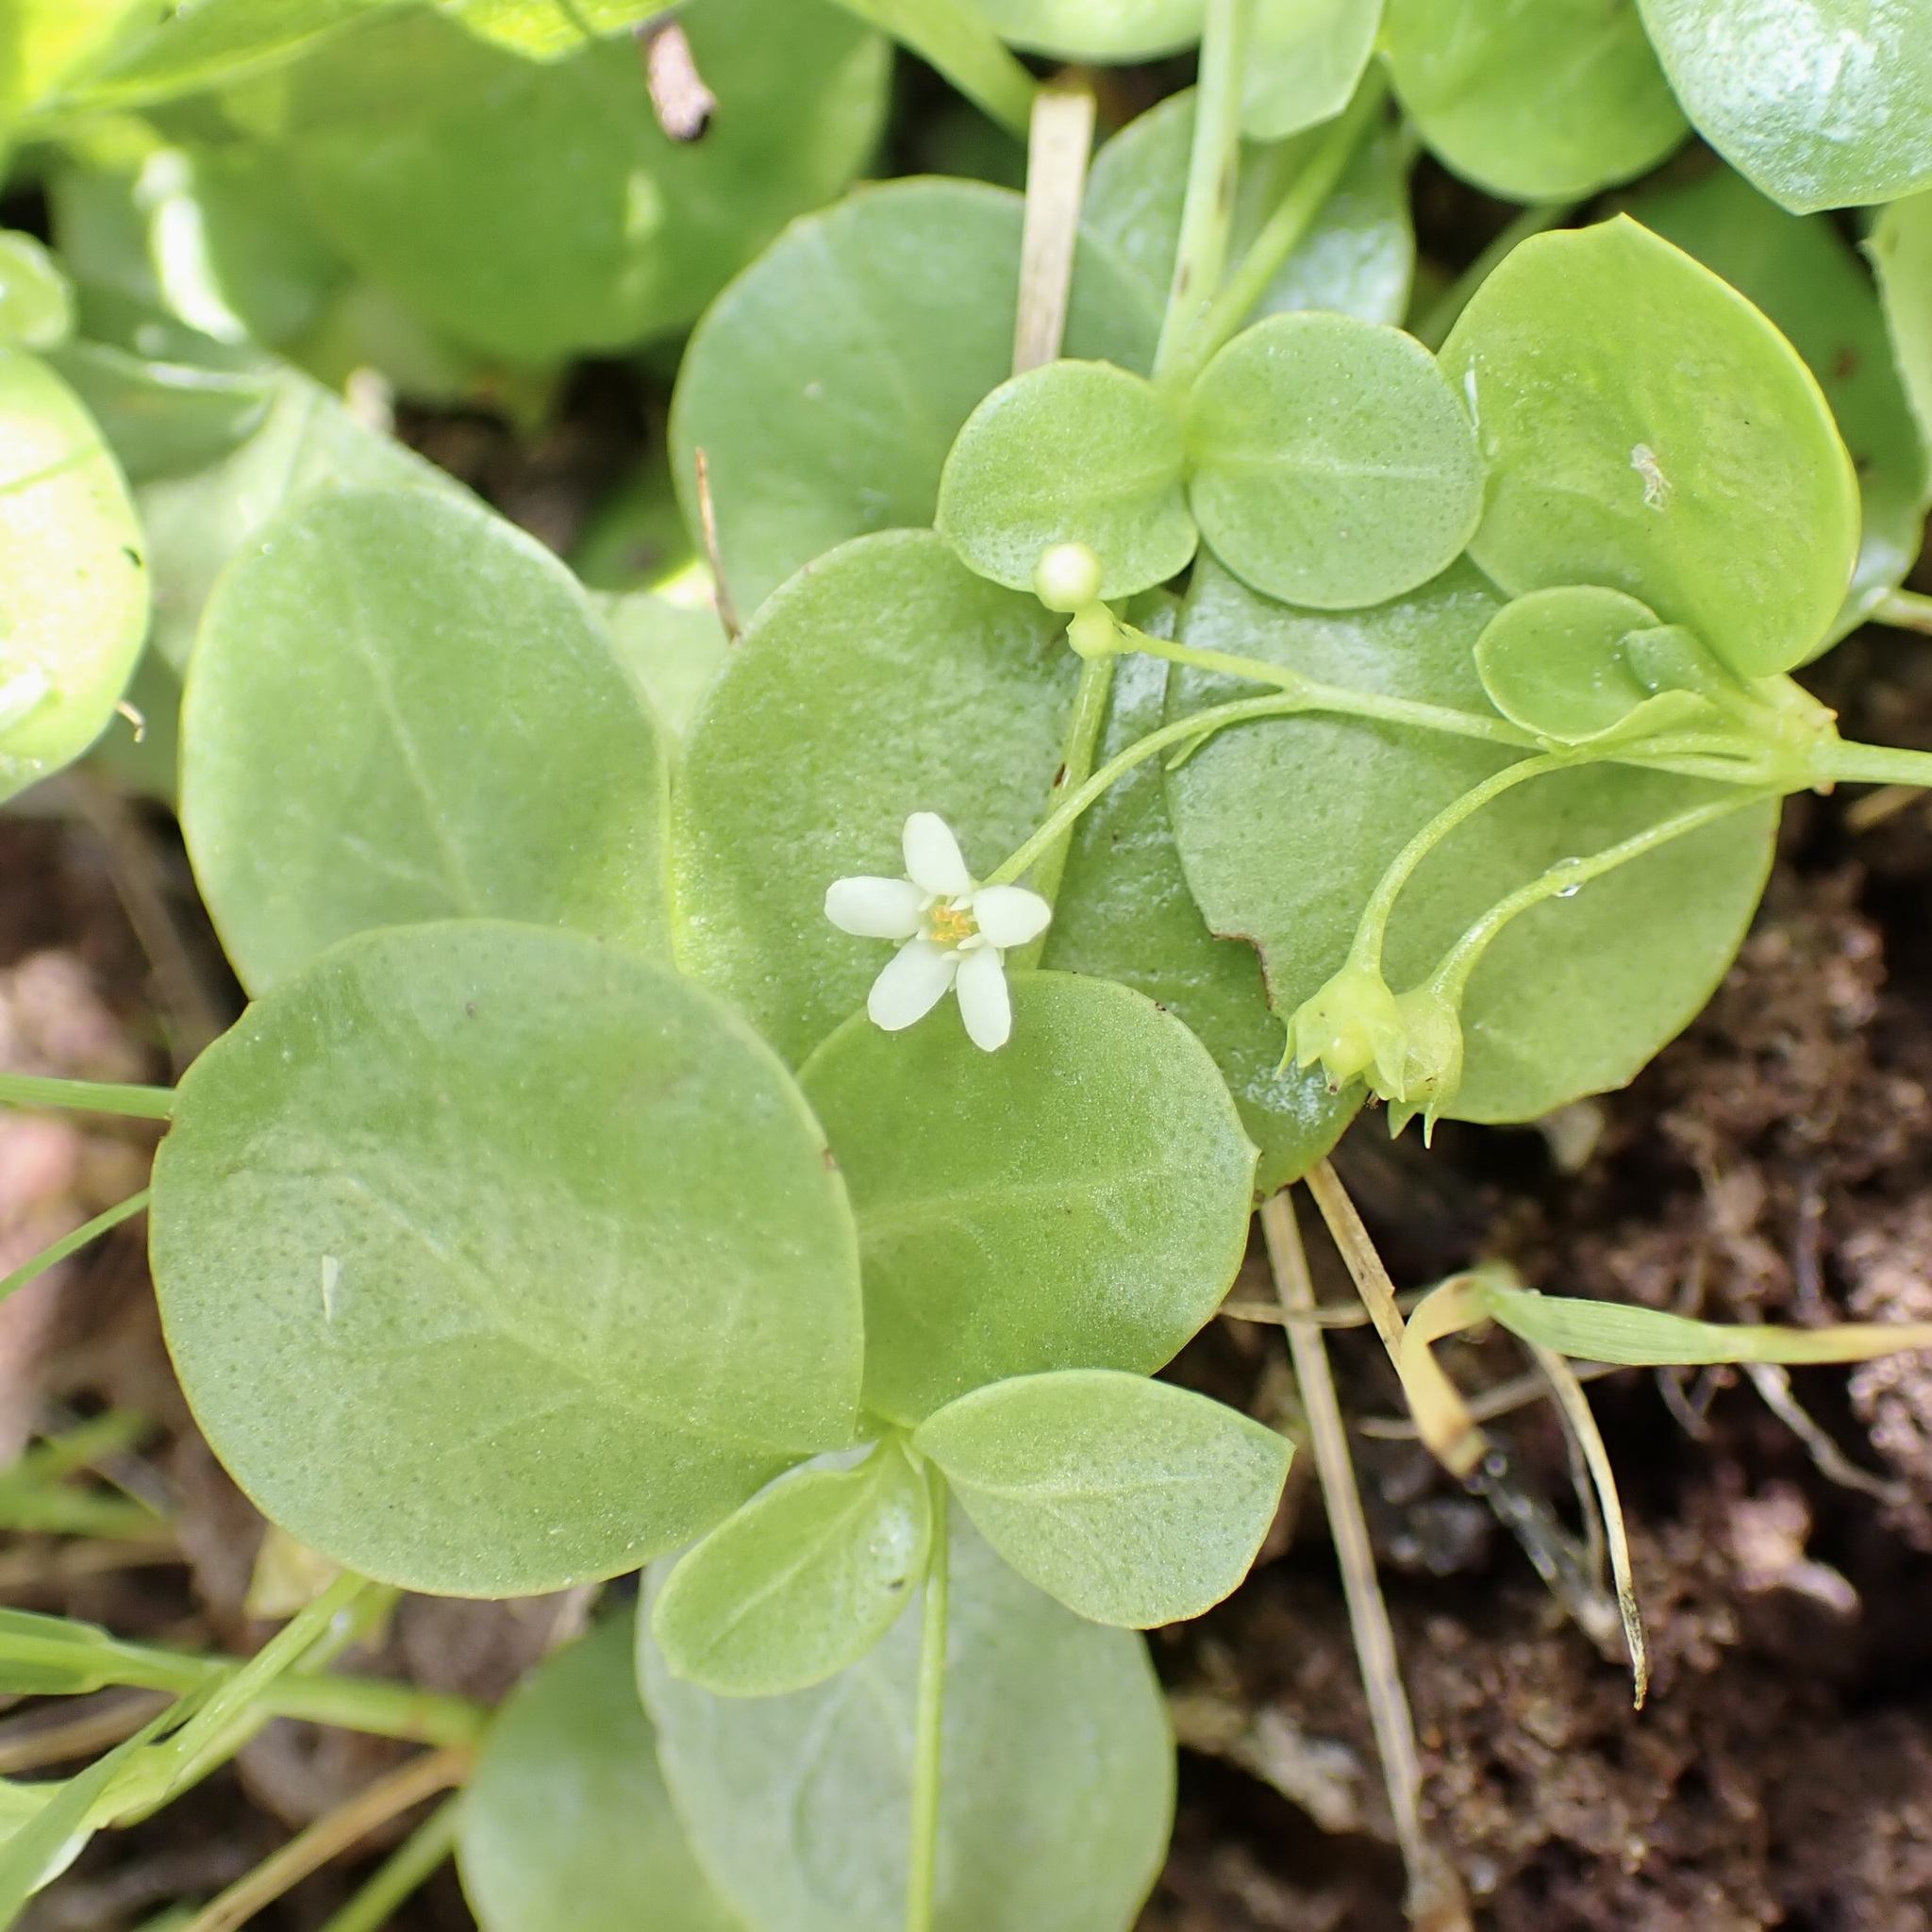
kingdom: Plantae
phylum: Tracheophyta
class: Magnoliopsida
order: Ericales
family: Primulaceae
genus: Samolus
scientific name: Samolus vagans
